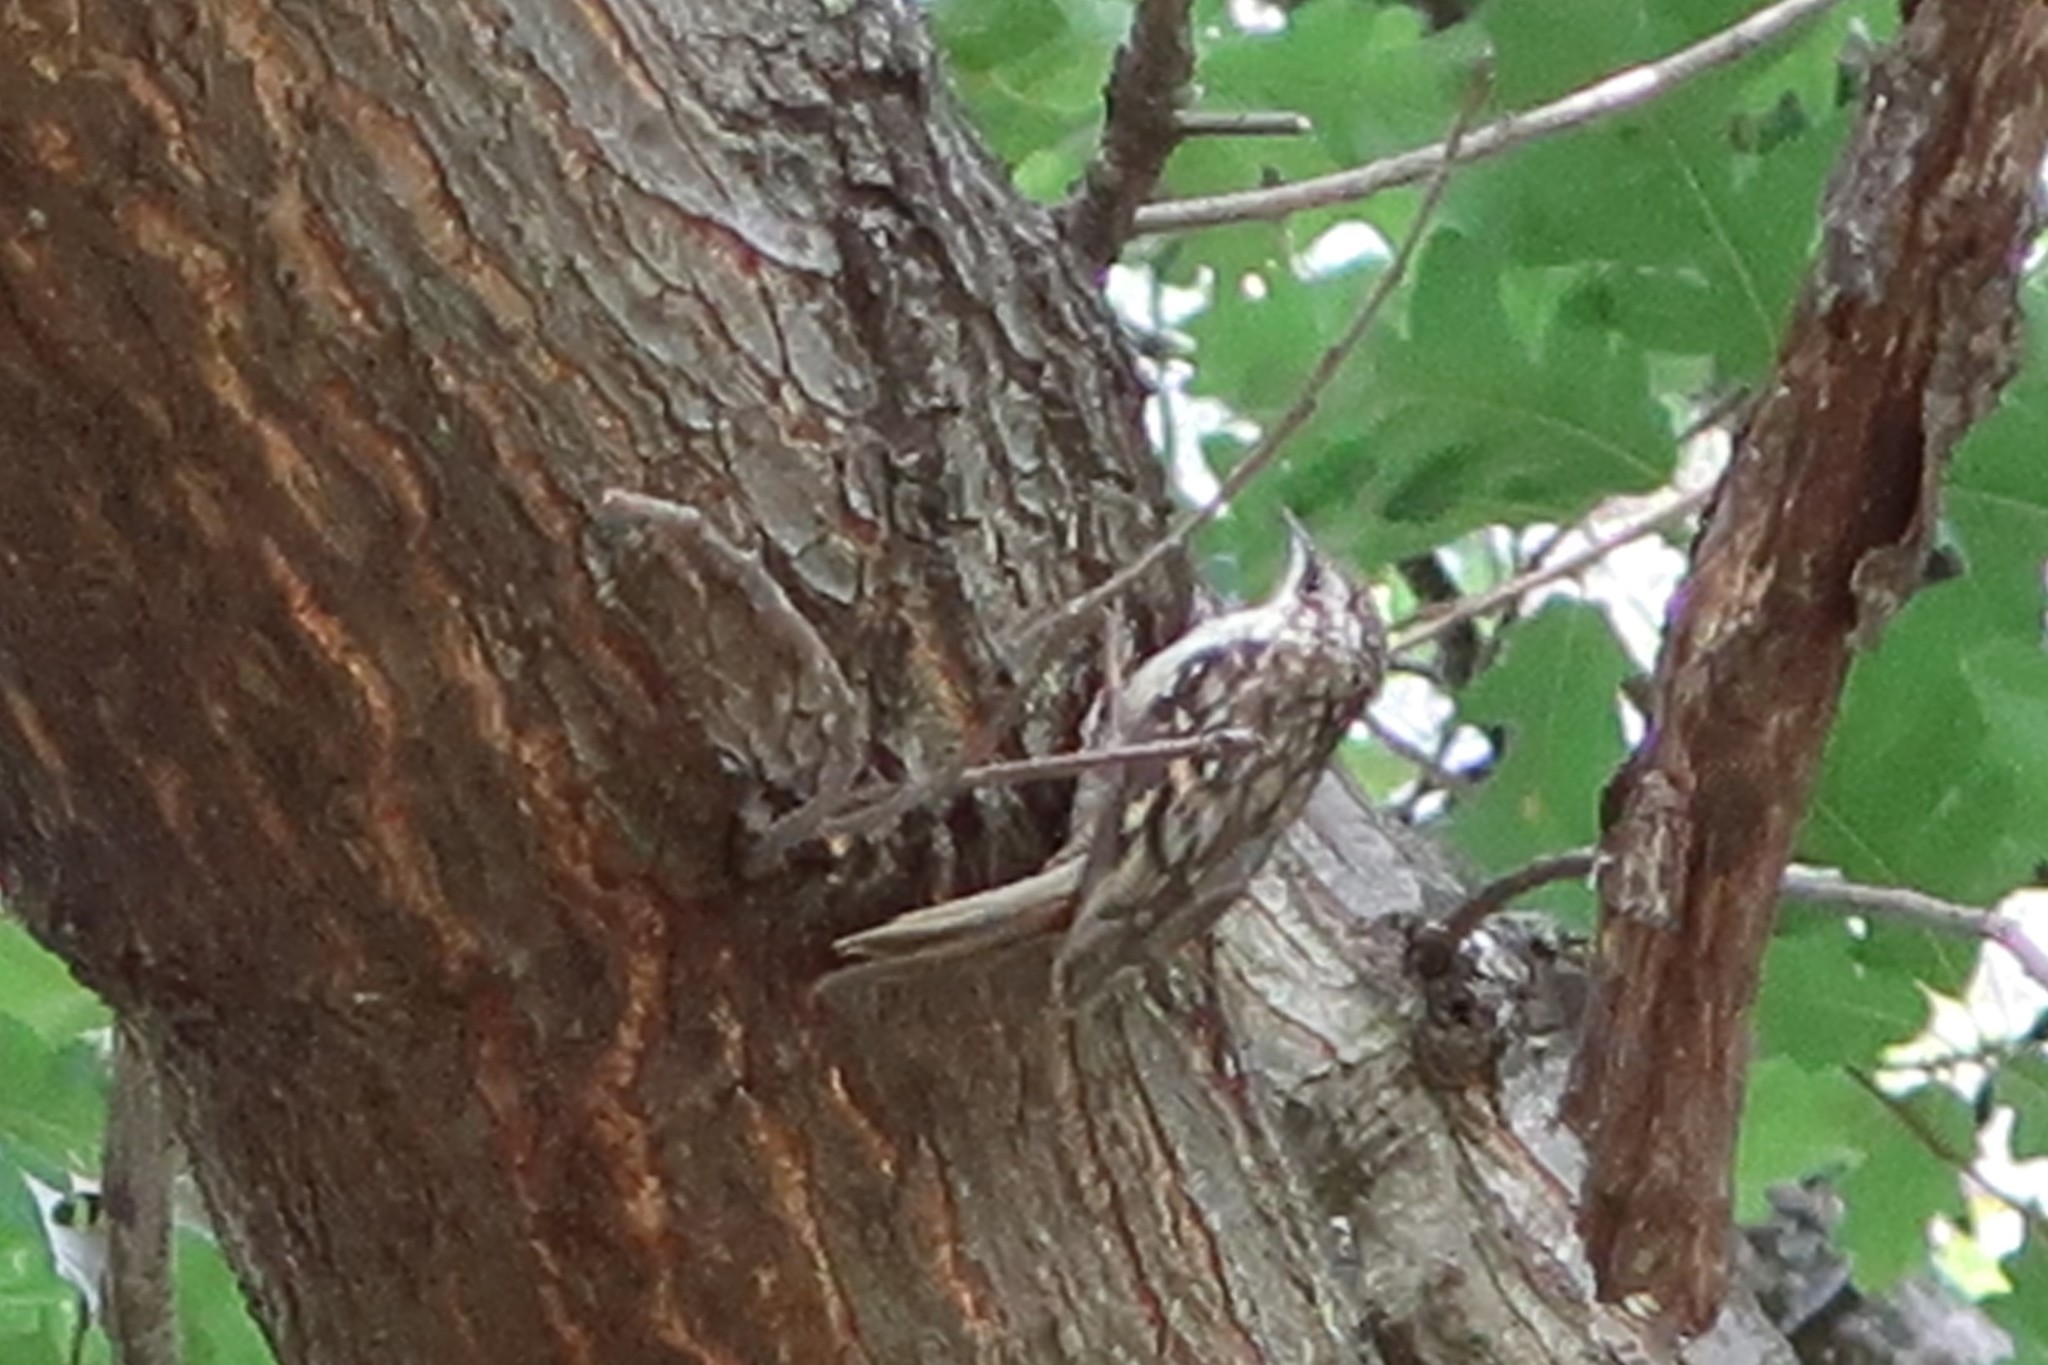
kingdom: Animalia
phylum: Chordata
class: Aves
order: Passeriformes
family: Certhiidae
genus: Certhia
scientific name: Certhia americana
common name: Brown creeper
